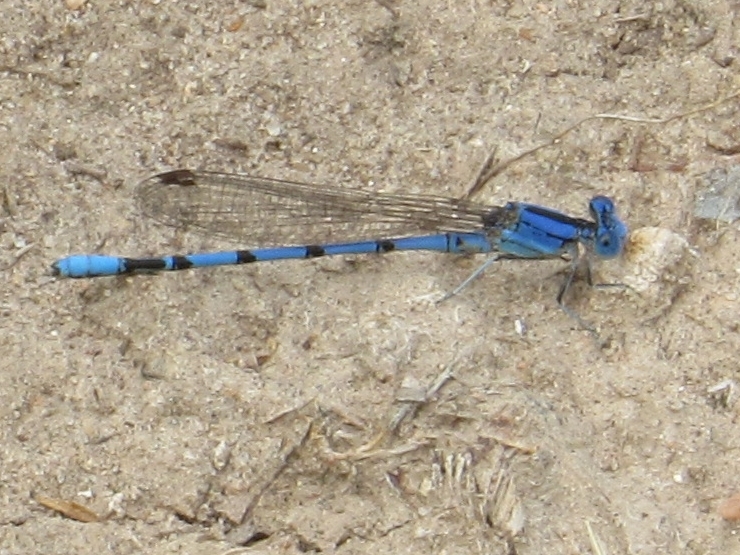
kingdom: Animalia
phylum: Arthropoda
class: Insecta
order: Odonata
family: Coenagrionidae
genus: Argia
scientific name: Argia nahuana
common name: Aztec dancer
